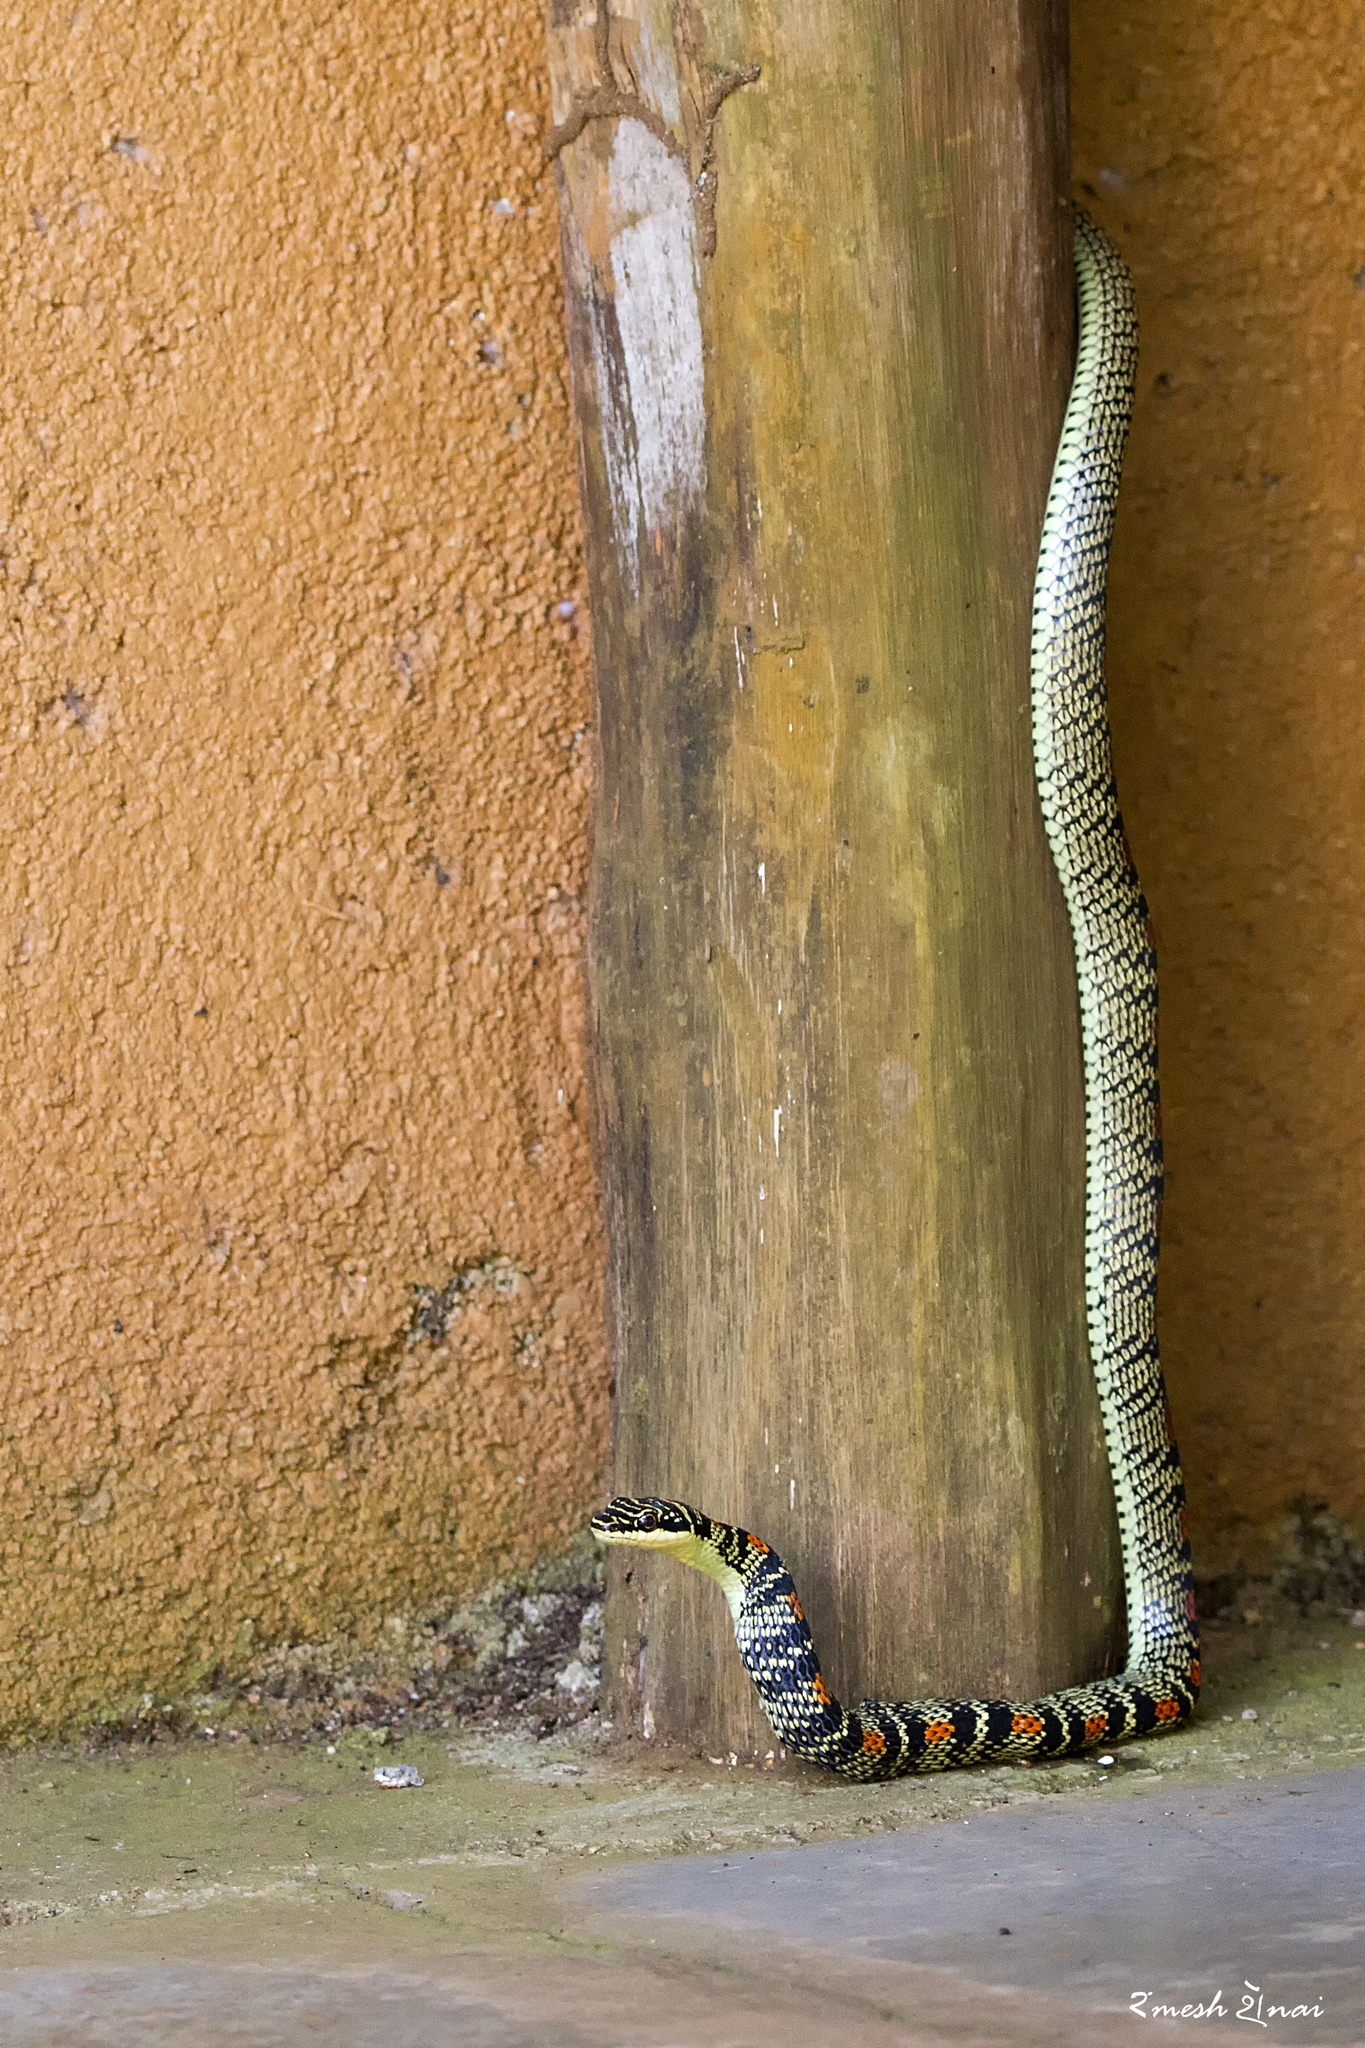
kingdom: Animalia
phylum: Chordata
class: Squamata
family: Colubridae
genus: Chrysopelea
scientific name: Chrysopelea ornata
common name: Golden flying snake
